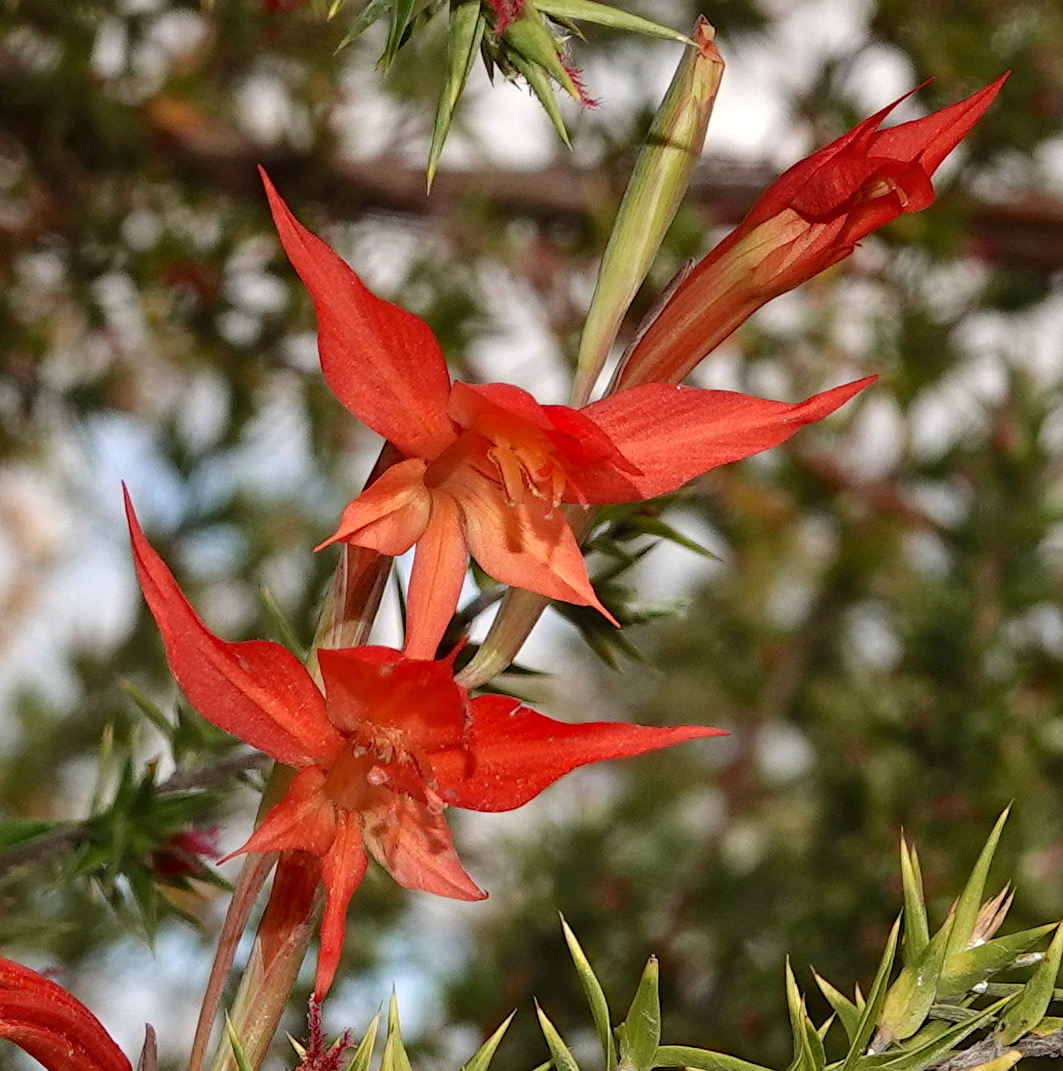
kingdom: Plantae
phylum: Tracheophyta
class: Liliopsida
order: Asparagales
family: Iridaceae
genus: Gladiolus
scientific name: Gladiolus quadrangularis
